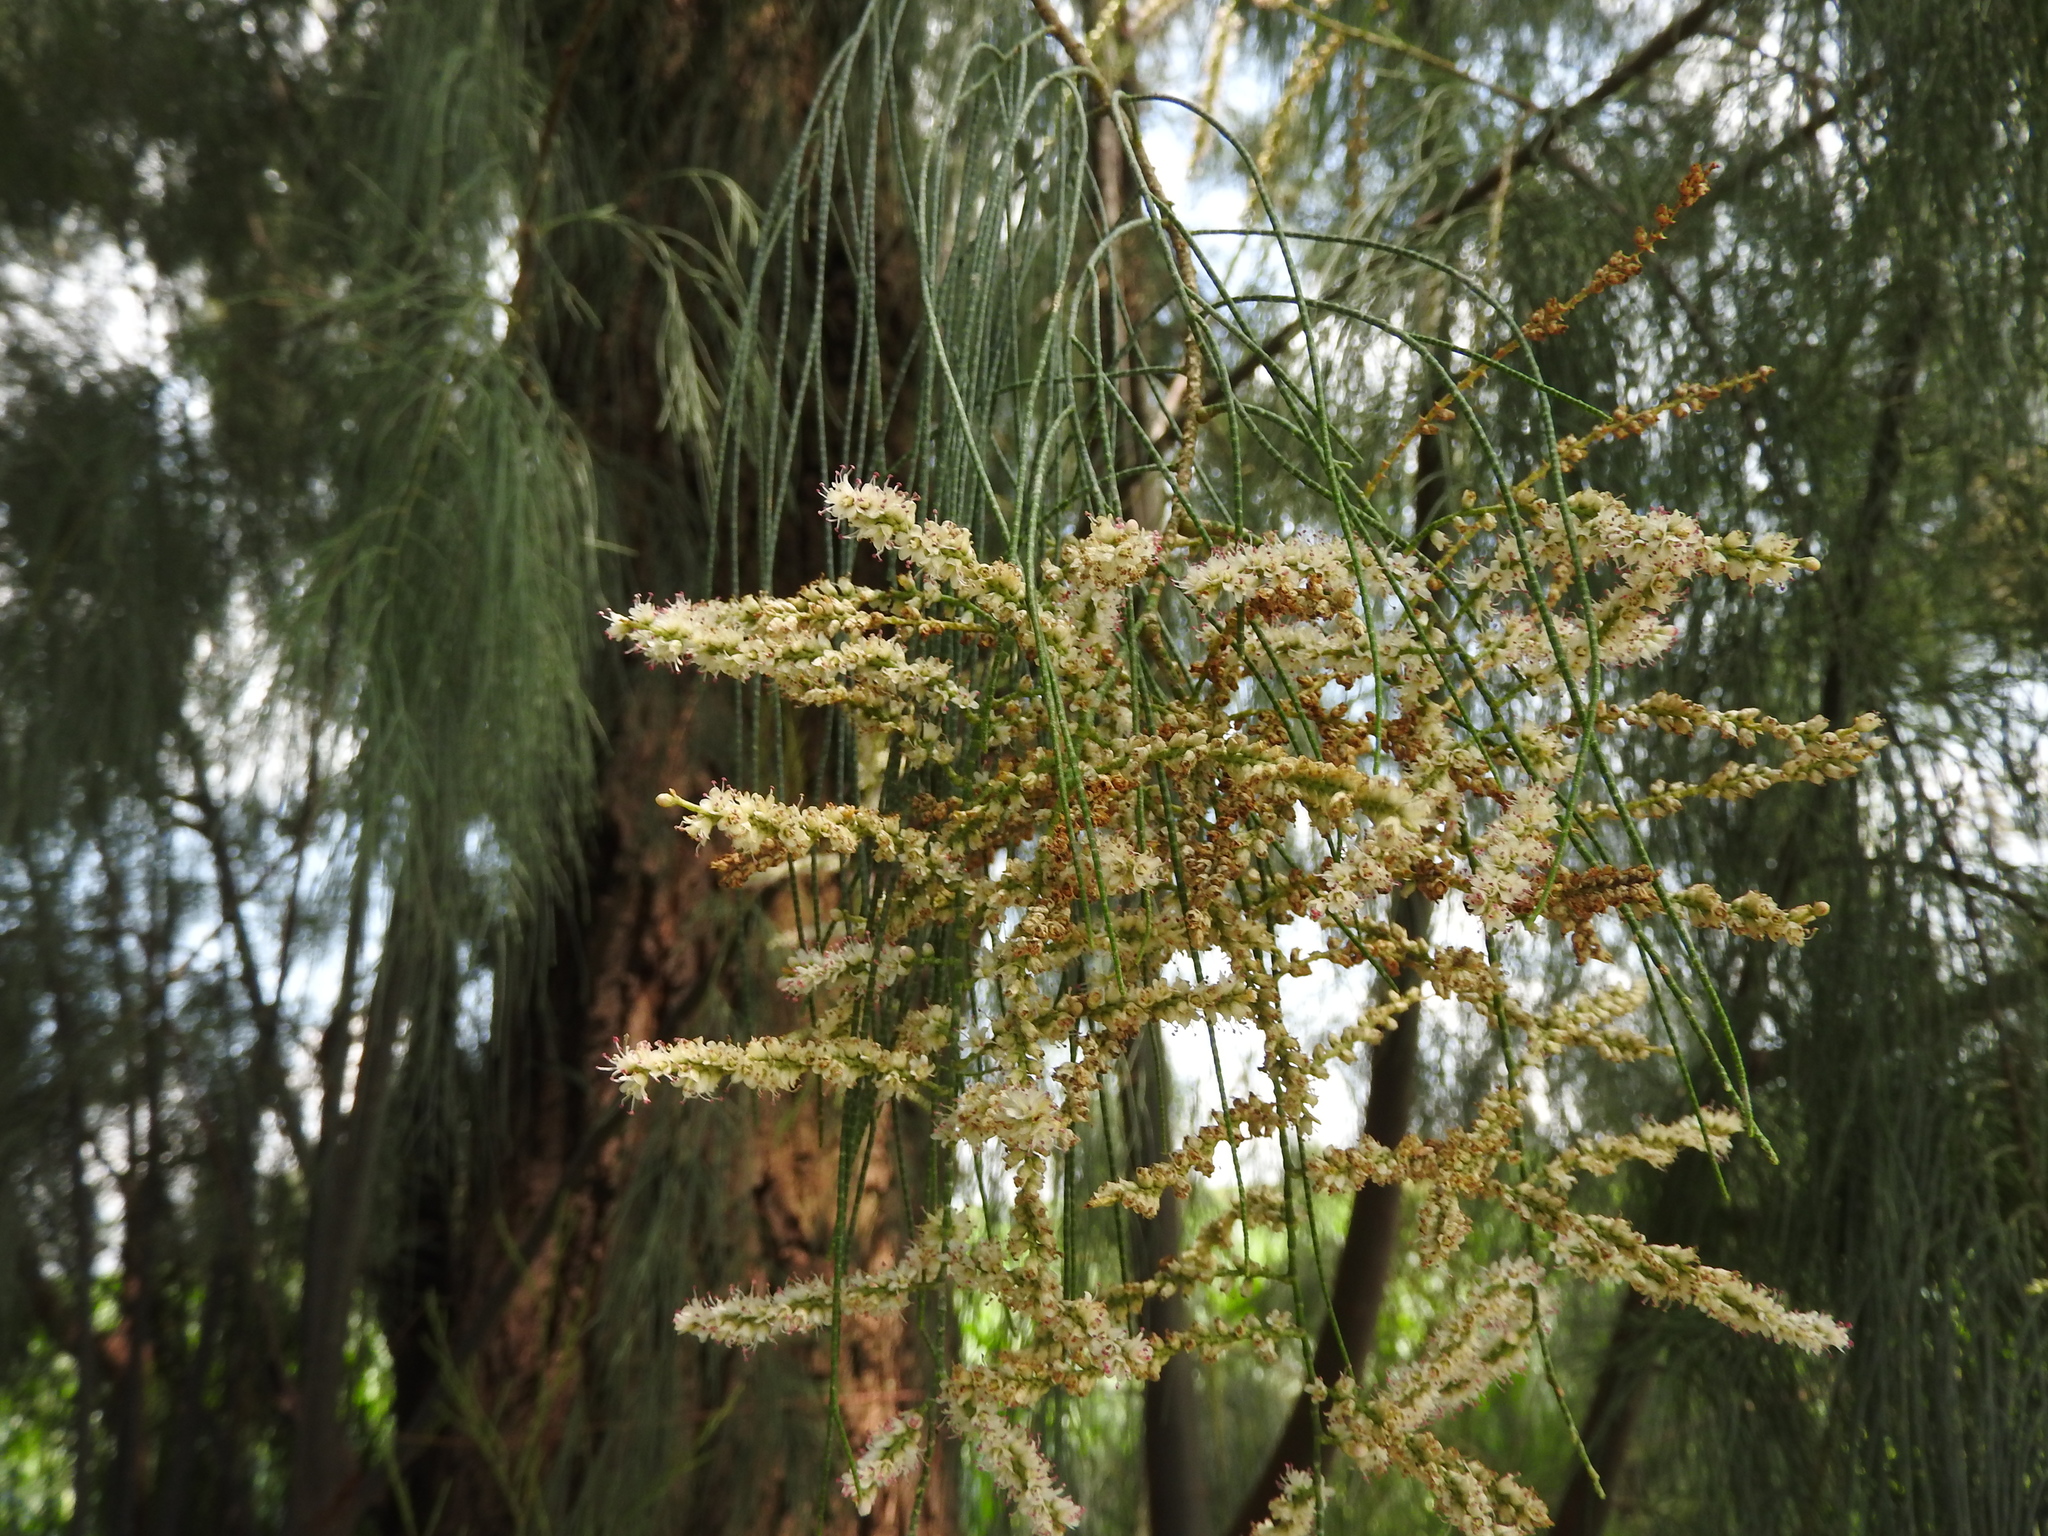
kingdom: Plantae
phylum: Tracheophyta
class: Magnoliopsida
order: Caryophyllales
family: Tamaricaceae
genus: Tamarix
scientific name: Tamarix aphylla
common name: Athel tamarisk
